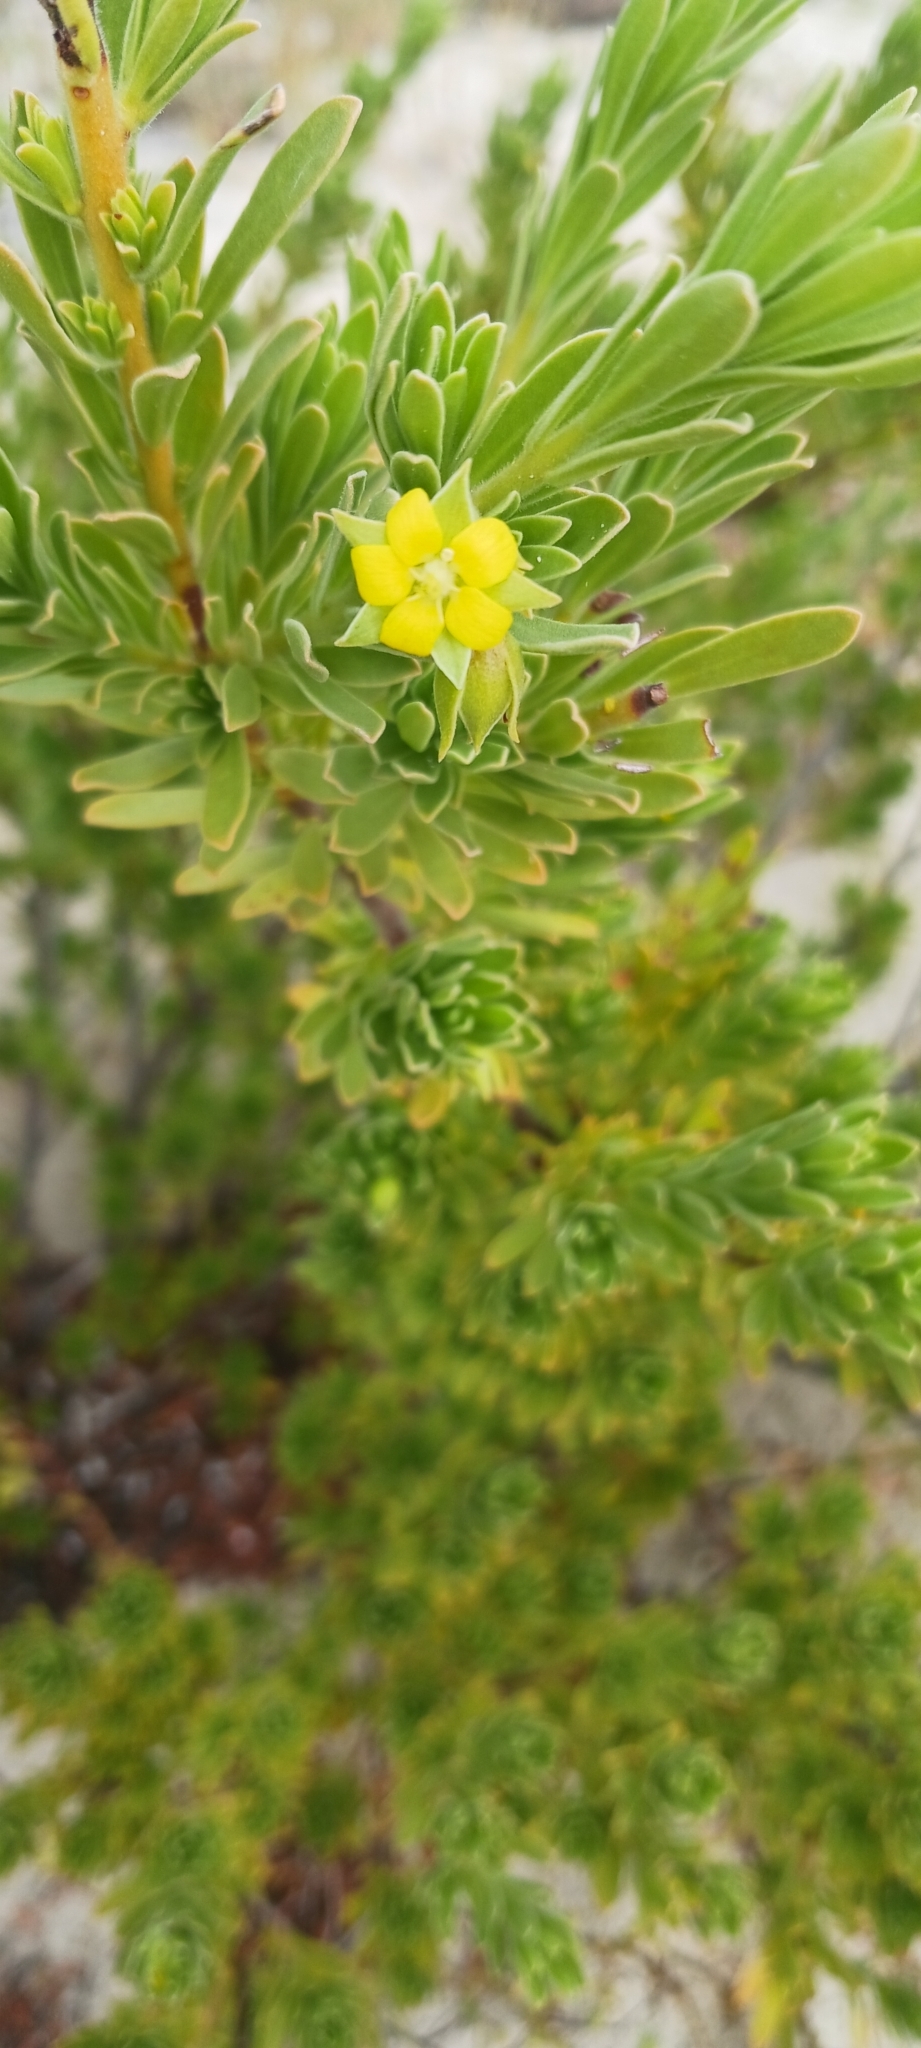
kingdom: Plantae
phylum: Tracheophyta
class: Magnoliopsida
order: Fabales
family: Surianaceae
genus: Suriana
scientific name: Suriana maritima
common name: Bay-cedar
